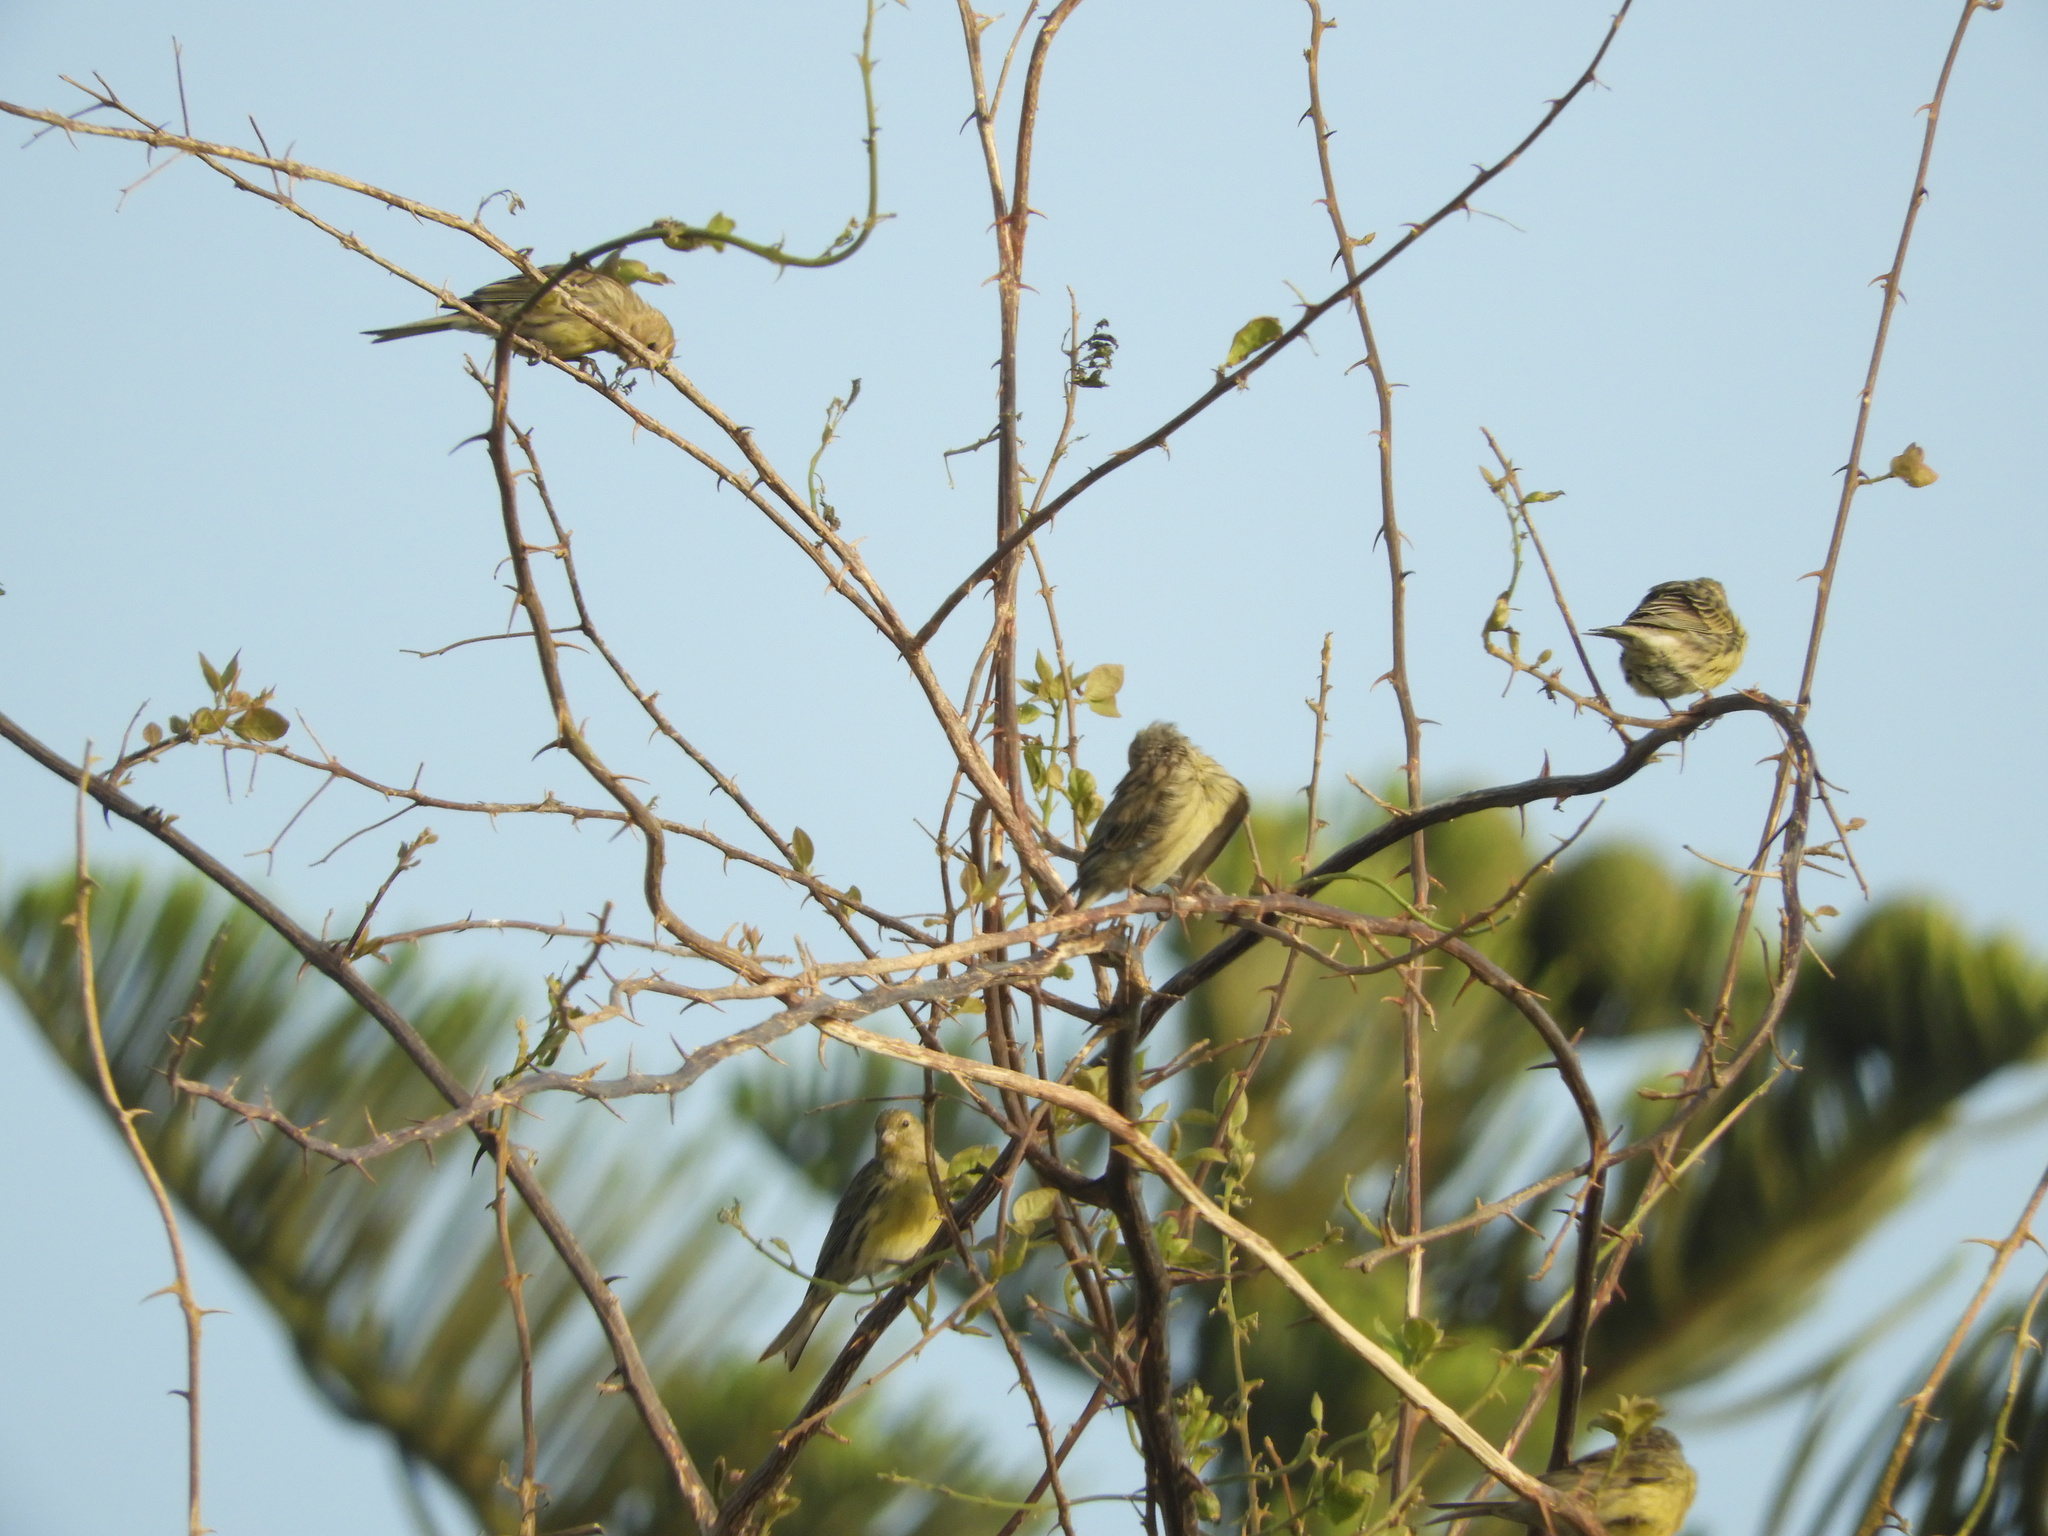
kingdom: Animalia
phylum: Chordata
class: Aves
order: Passeriformes
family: Fringillidae
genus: Serinus
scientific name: Serinus canaria
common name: Atlantic canary
